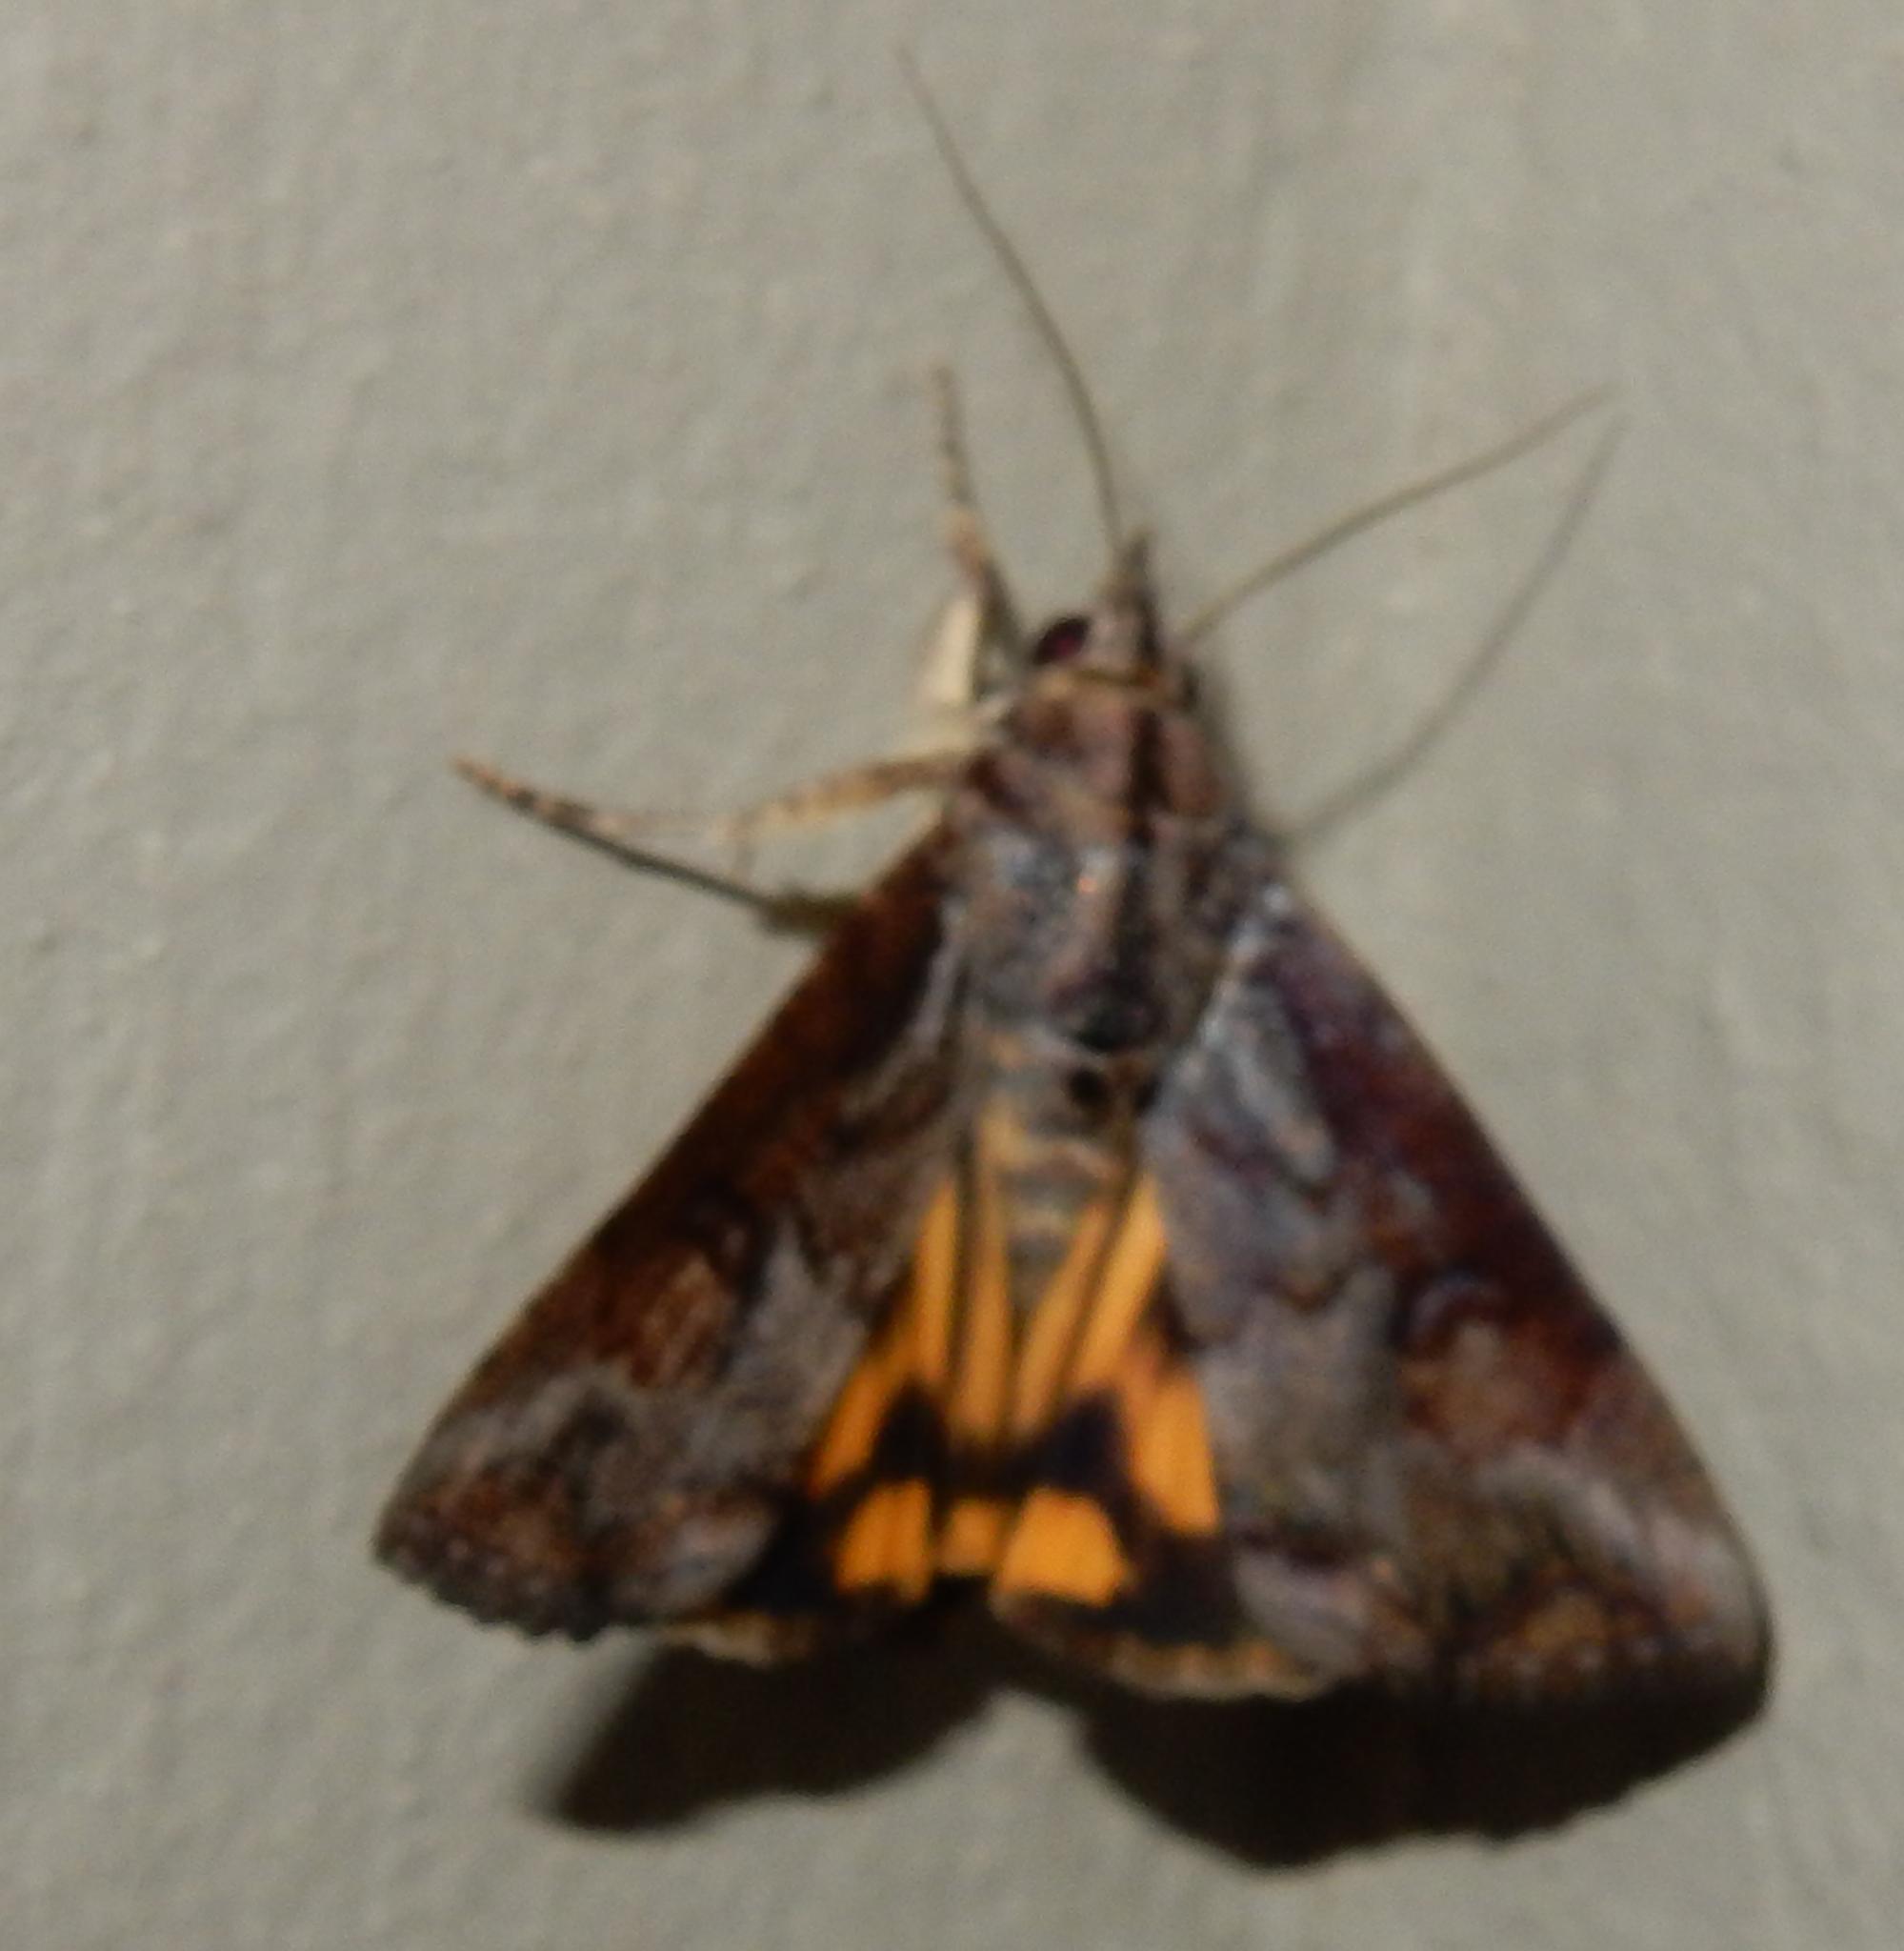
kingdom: Animalia
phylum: Arthropoda
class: Insecta
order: Lepidoptera
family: Erebidae
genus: Hypocala
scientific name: Hypocala rostrata
